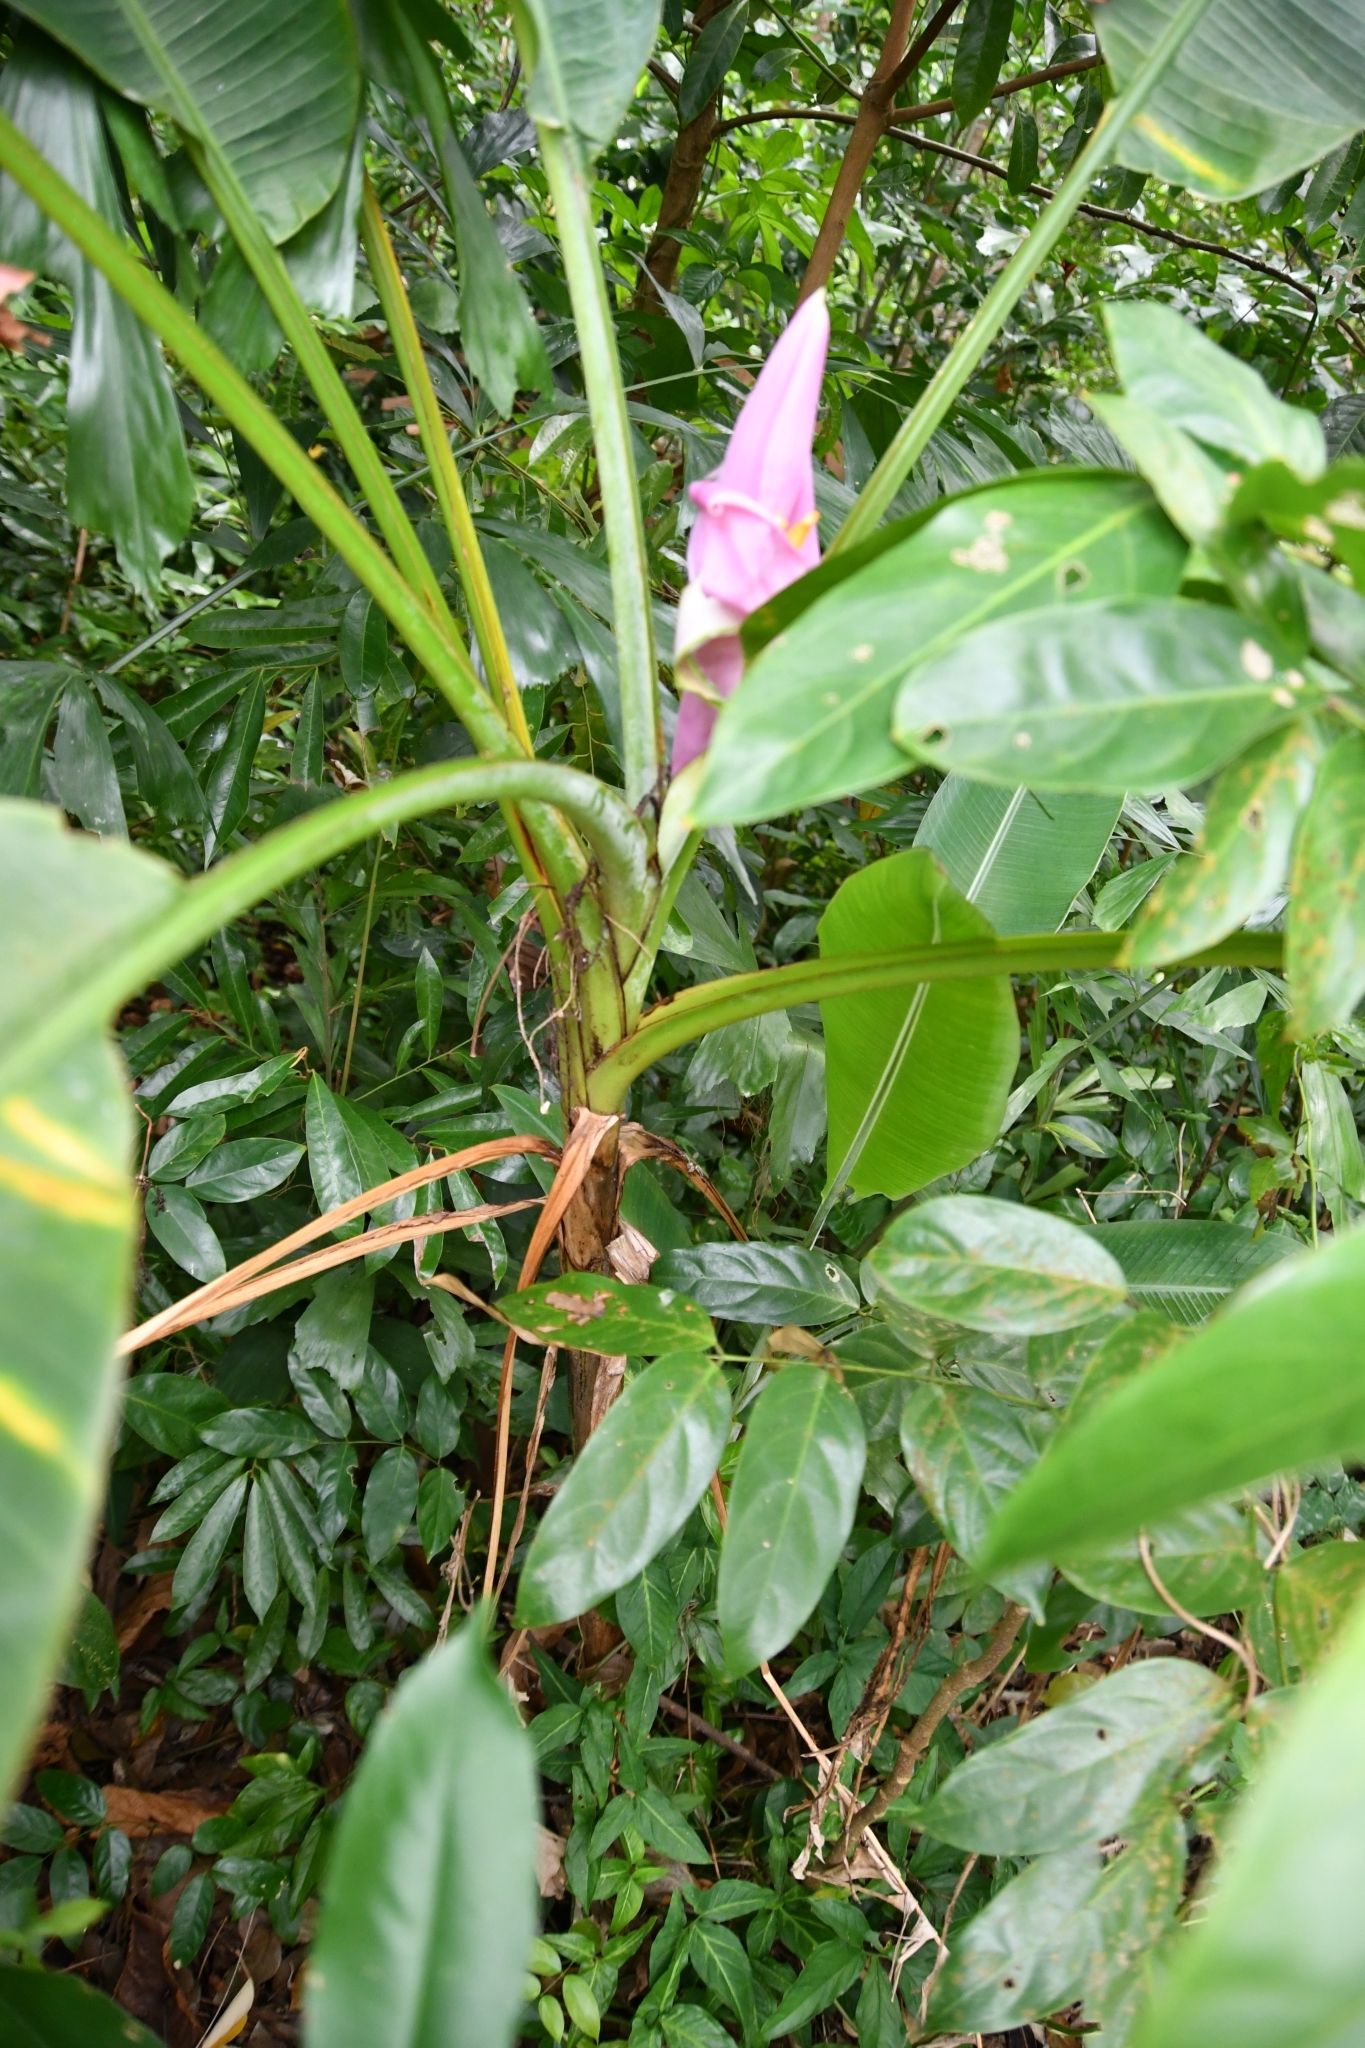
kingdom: Plantae
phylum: Tracheophyta
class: Liliopsida
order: Zingiberales
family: Musaceae
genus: Musa
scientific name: Musa ornata
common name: Flowering banana
